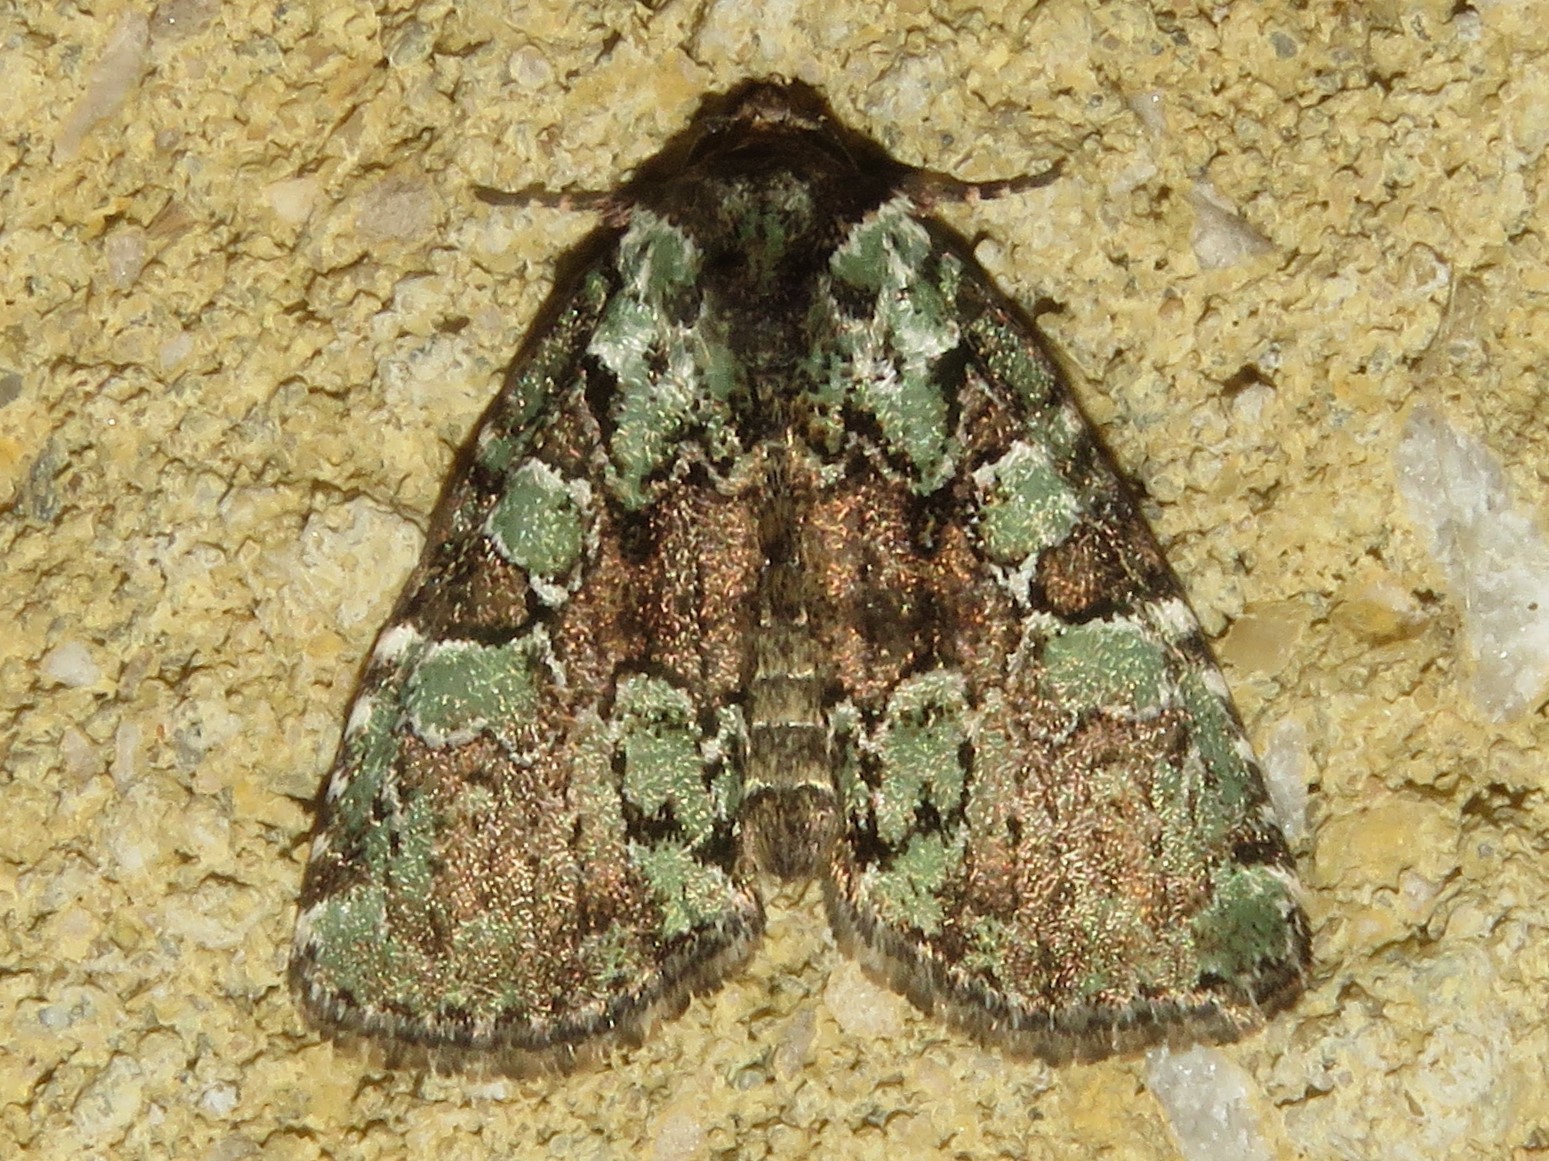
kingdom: Animalia
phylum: Arthropoda
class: Insecta
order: Lepidoptera
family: Noctuidae
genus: Leuconycta
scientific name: Leuconycta lepidula
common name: Marbled-green leuconycta moth
